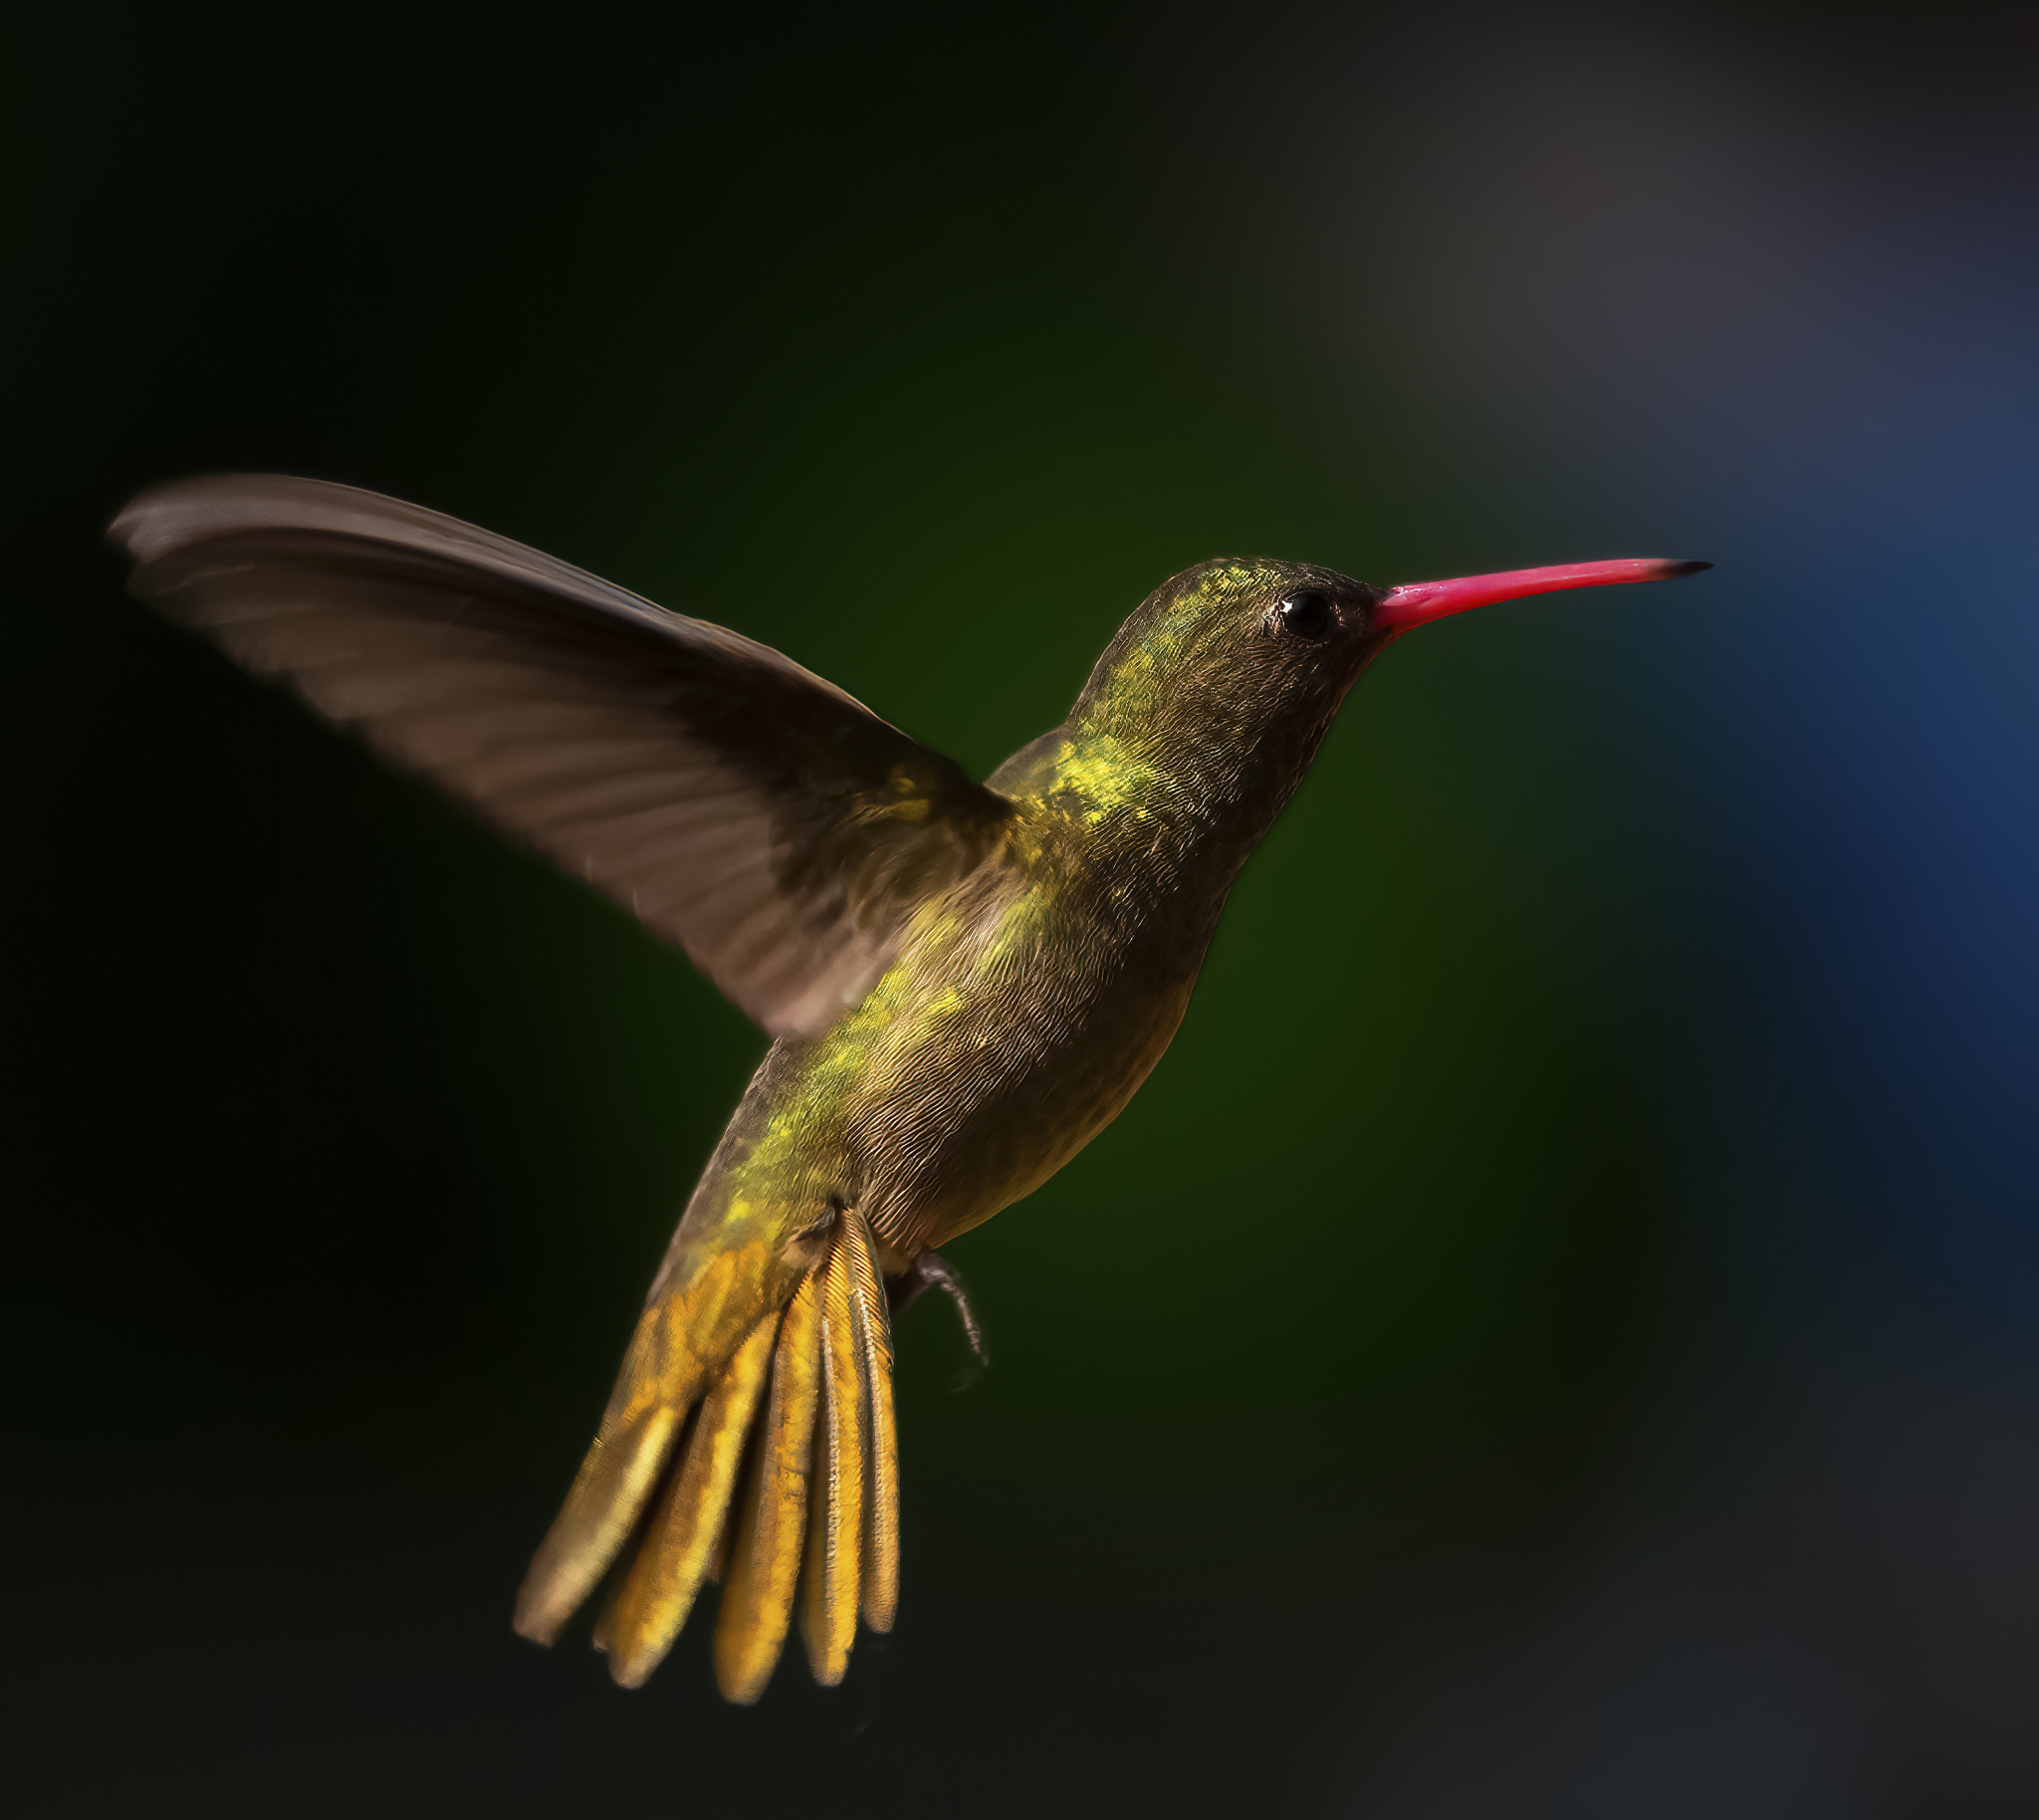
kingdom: Animalia
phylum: Chordata
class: Aves
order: Apodiformes
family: Trochilidae
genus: Hylocharis
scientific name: Hylocharis chrysura
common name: Gilded sapphire
